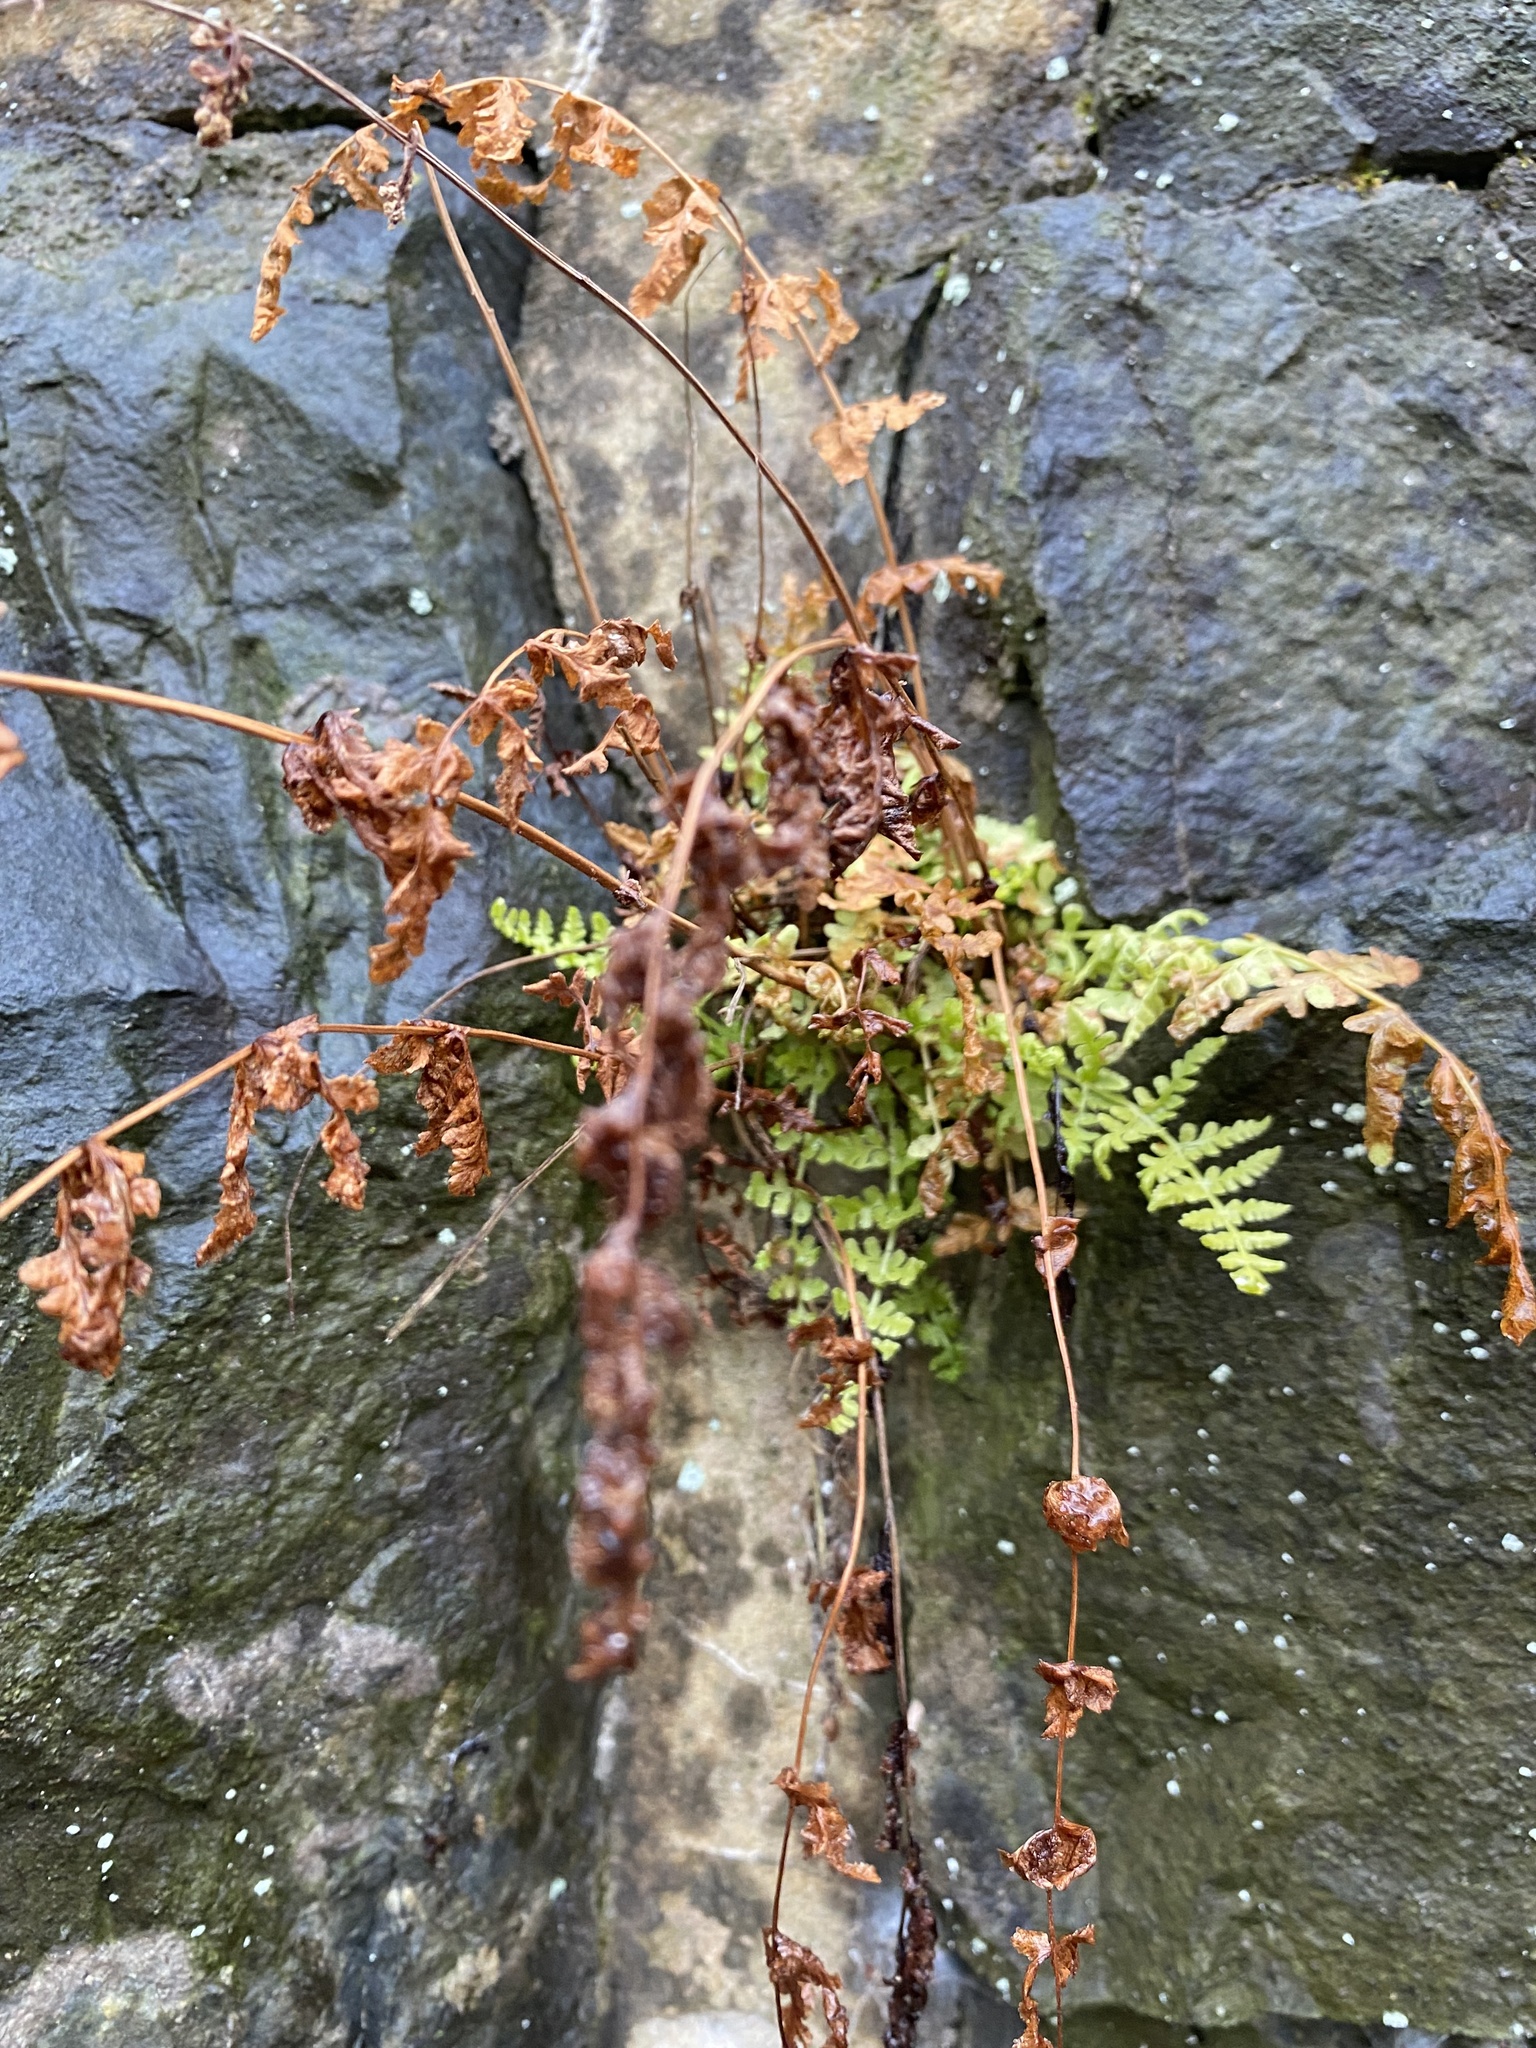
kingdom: Plantae
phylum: Tracheophyta
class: Polypodiopsida
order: Polypodiales
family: Woodsiaceae
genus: Physematium
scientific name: Physematium obtusum
